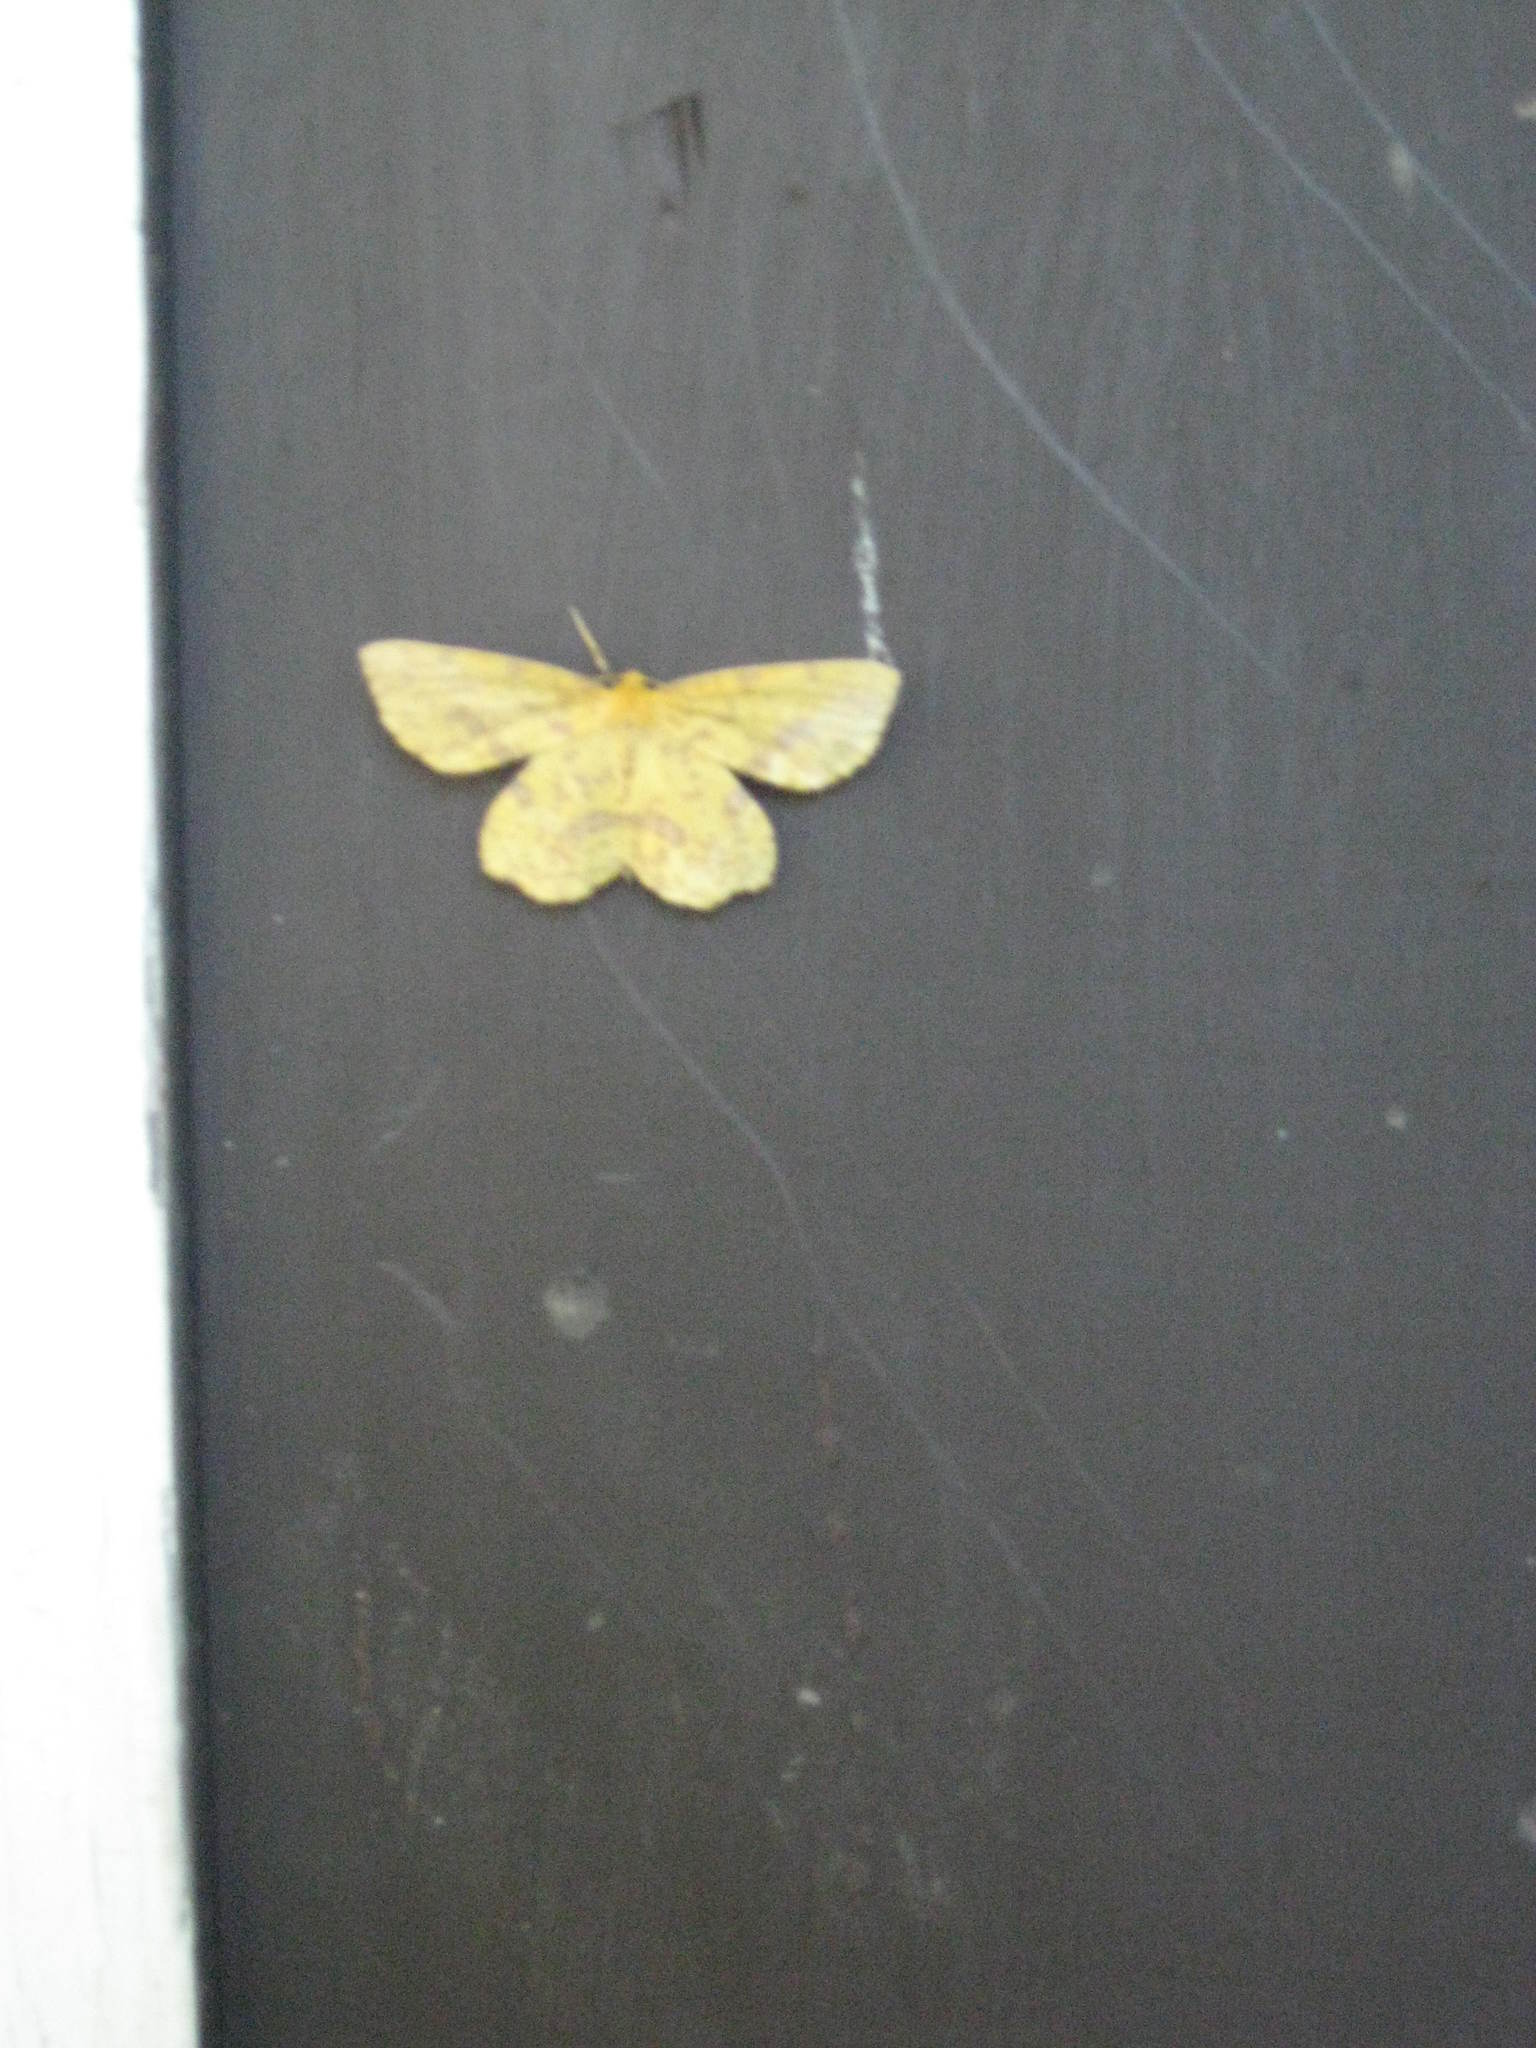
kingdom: Animalia
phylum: Arthropoda
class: Insecta
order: Lepidoptera
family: Geometridae
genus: Xanthotype
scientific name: Xanthotype
